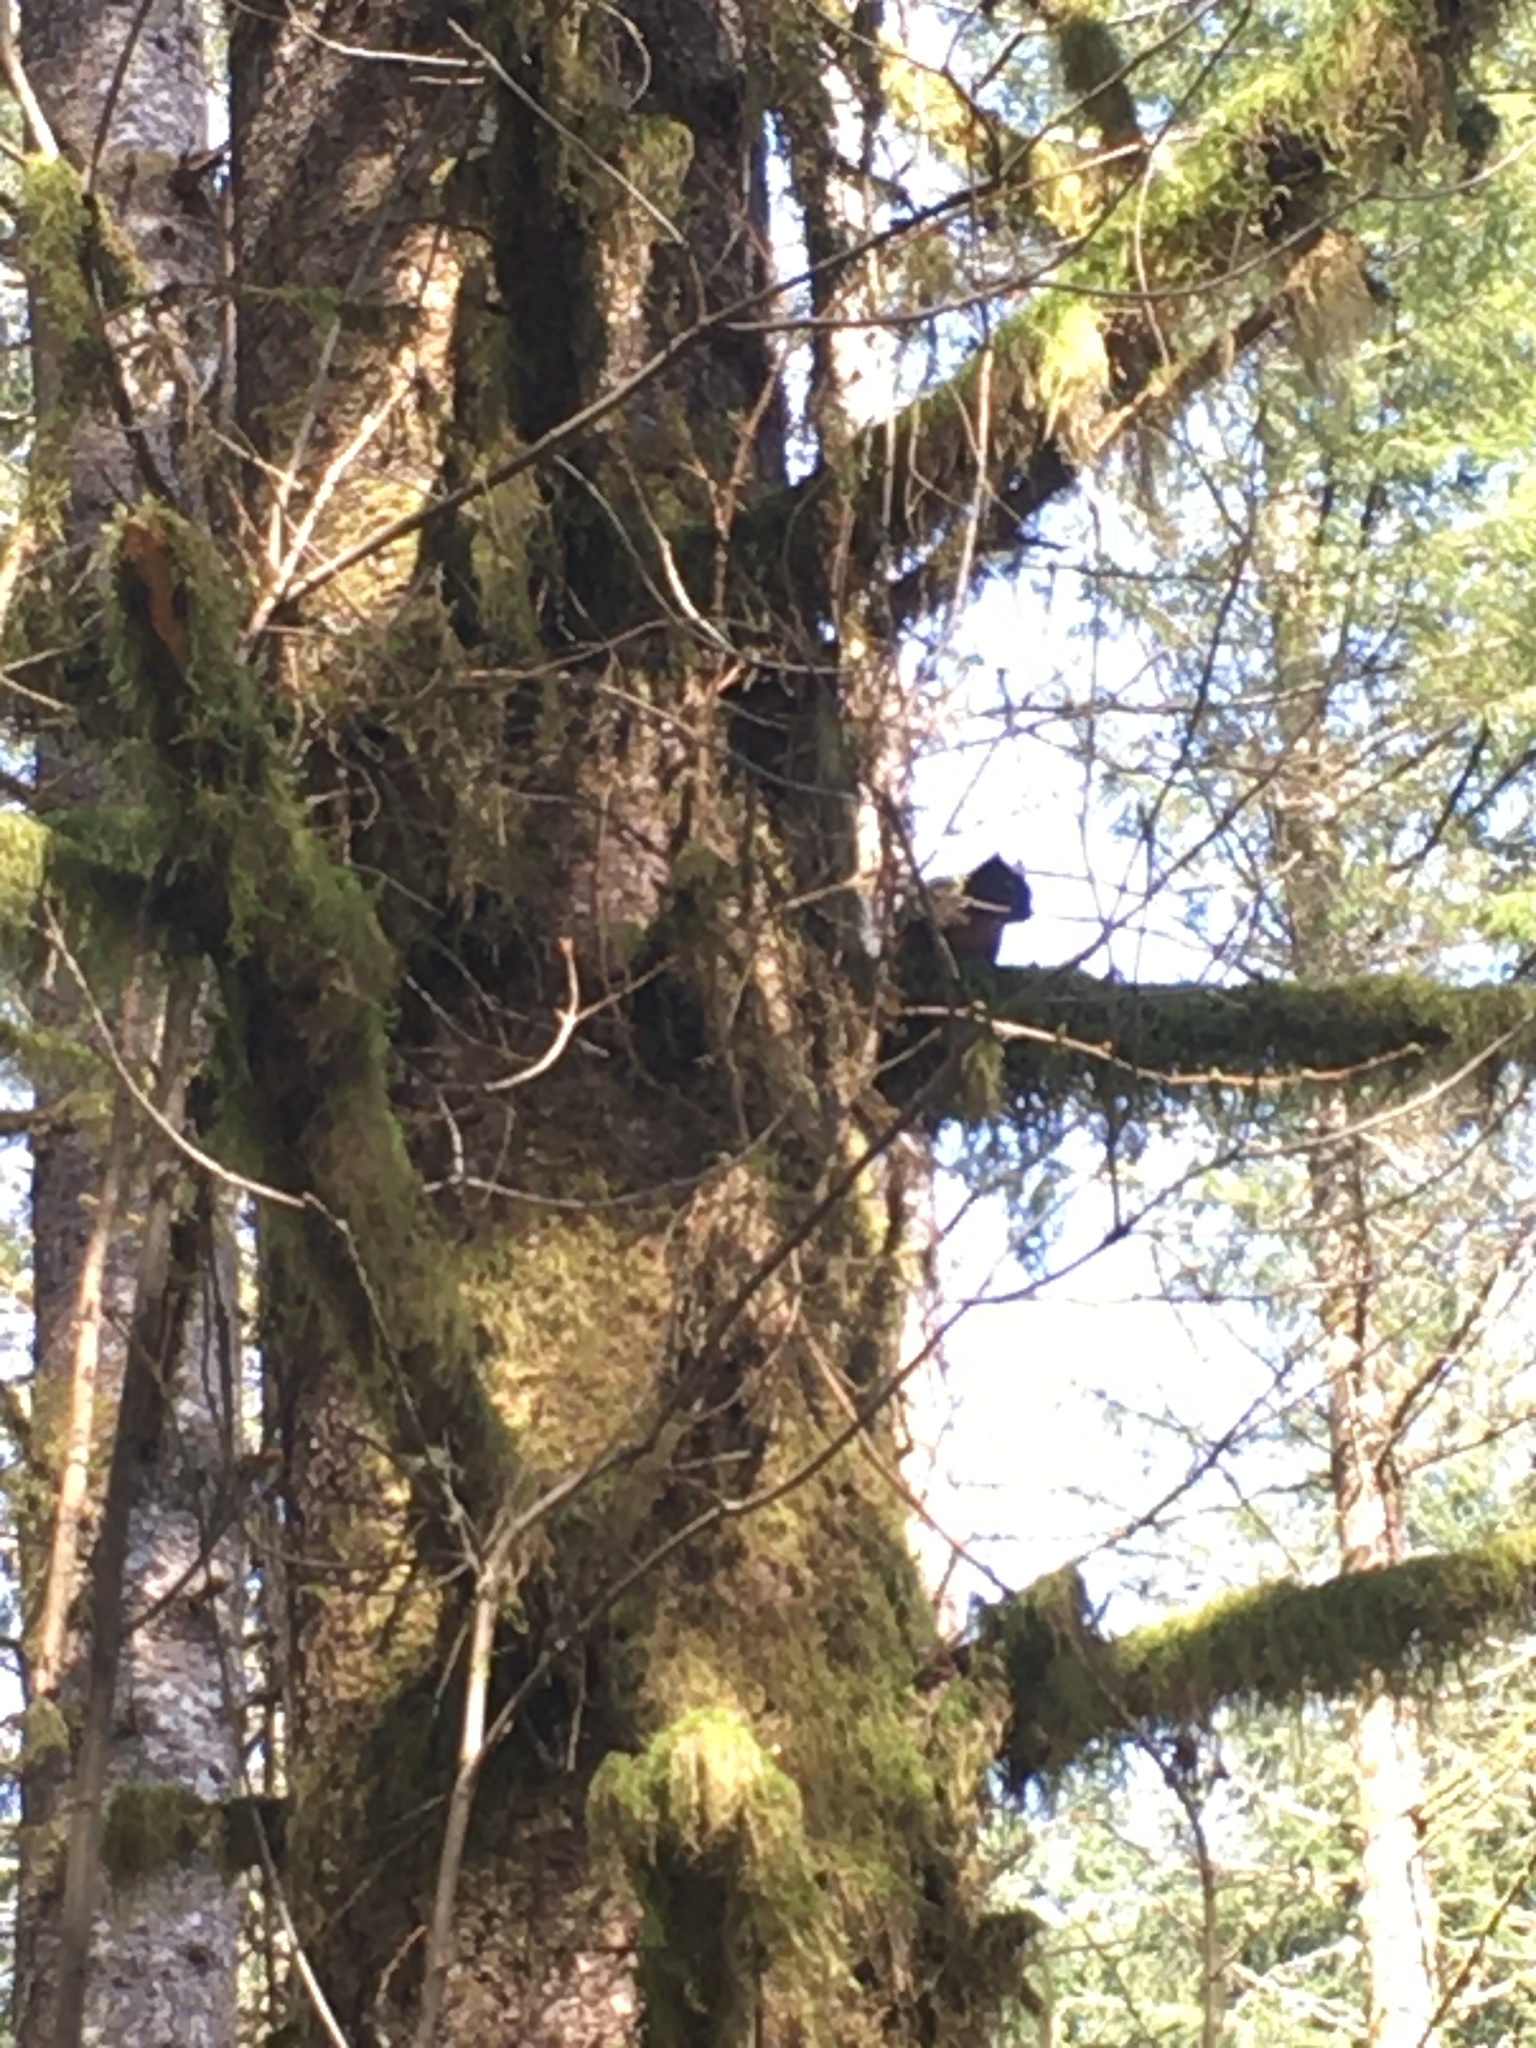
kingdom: Animalia
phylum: Chordata
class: Mammalia
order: Rodentia
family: Sciuridae
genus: Tamiasciurus
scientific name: Tamiasciurus douglasii
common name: Douglas's squirrel
